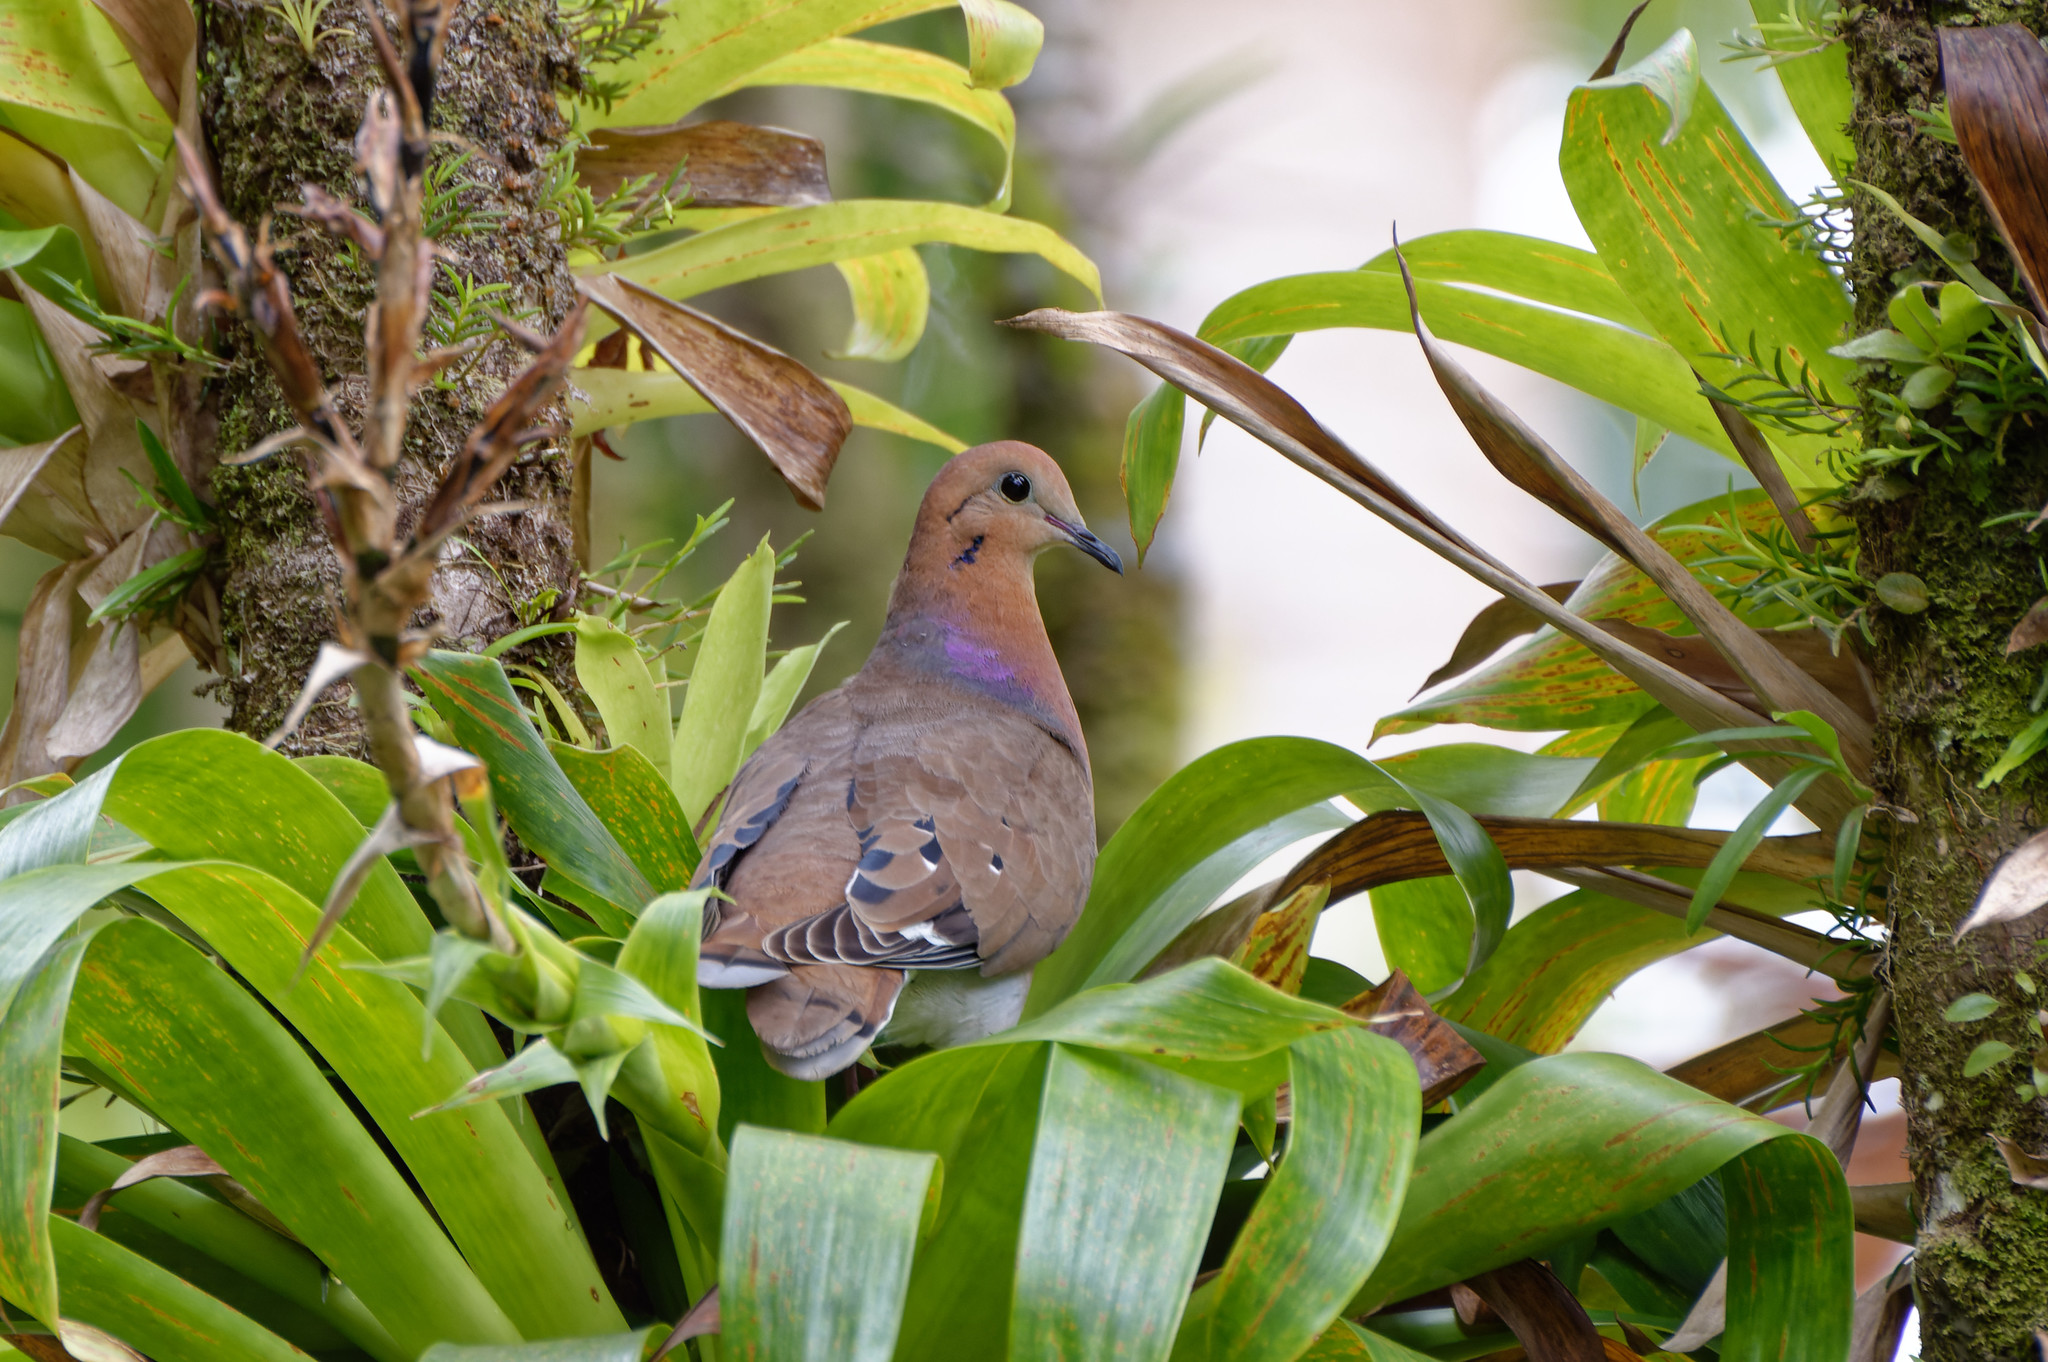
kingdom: Animalia
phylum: Chordata
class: Aves
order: Columbiformes
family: Columbidae
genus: Zenaida
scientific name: Zenaida aurita
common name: Zenaida dove
